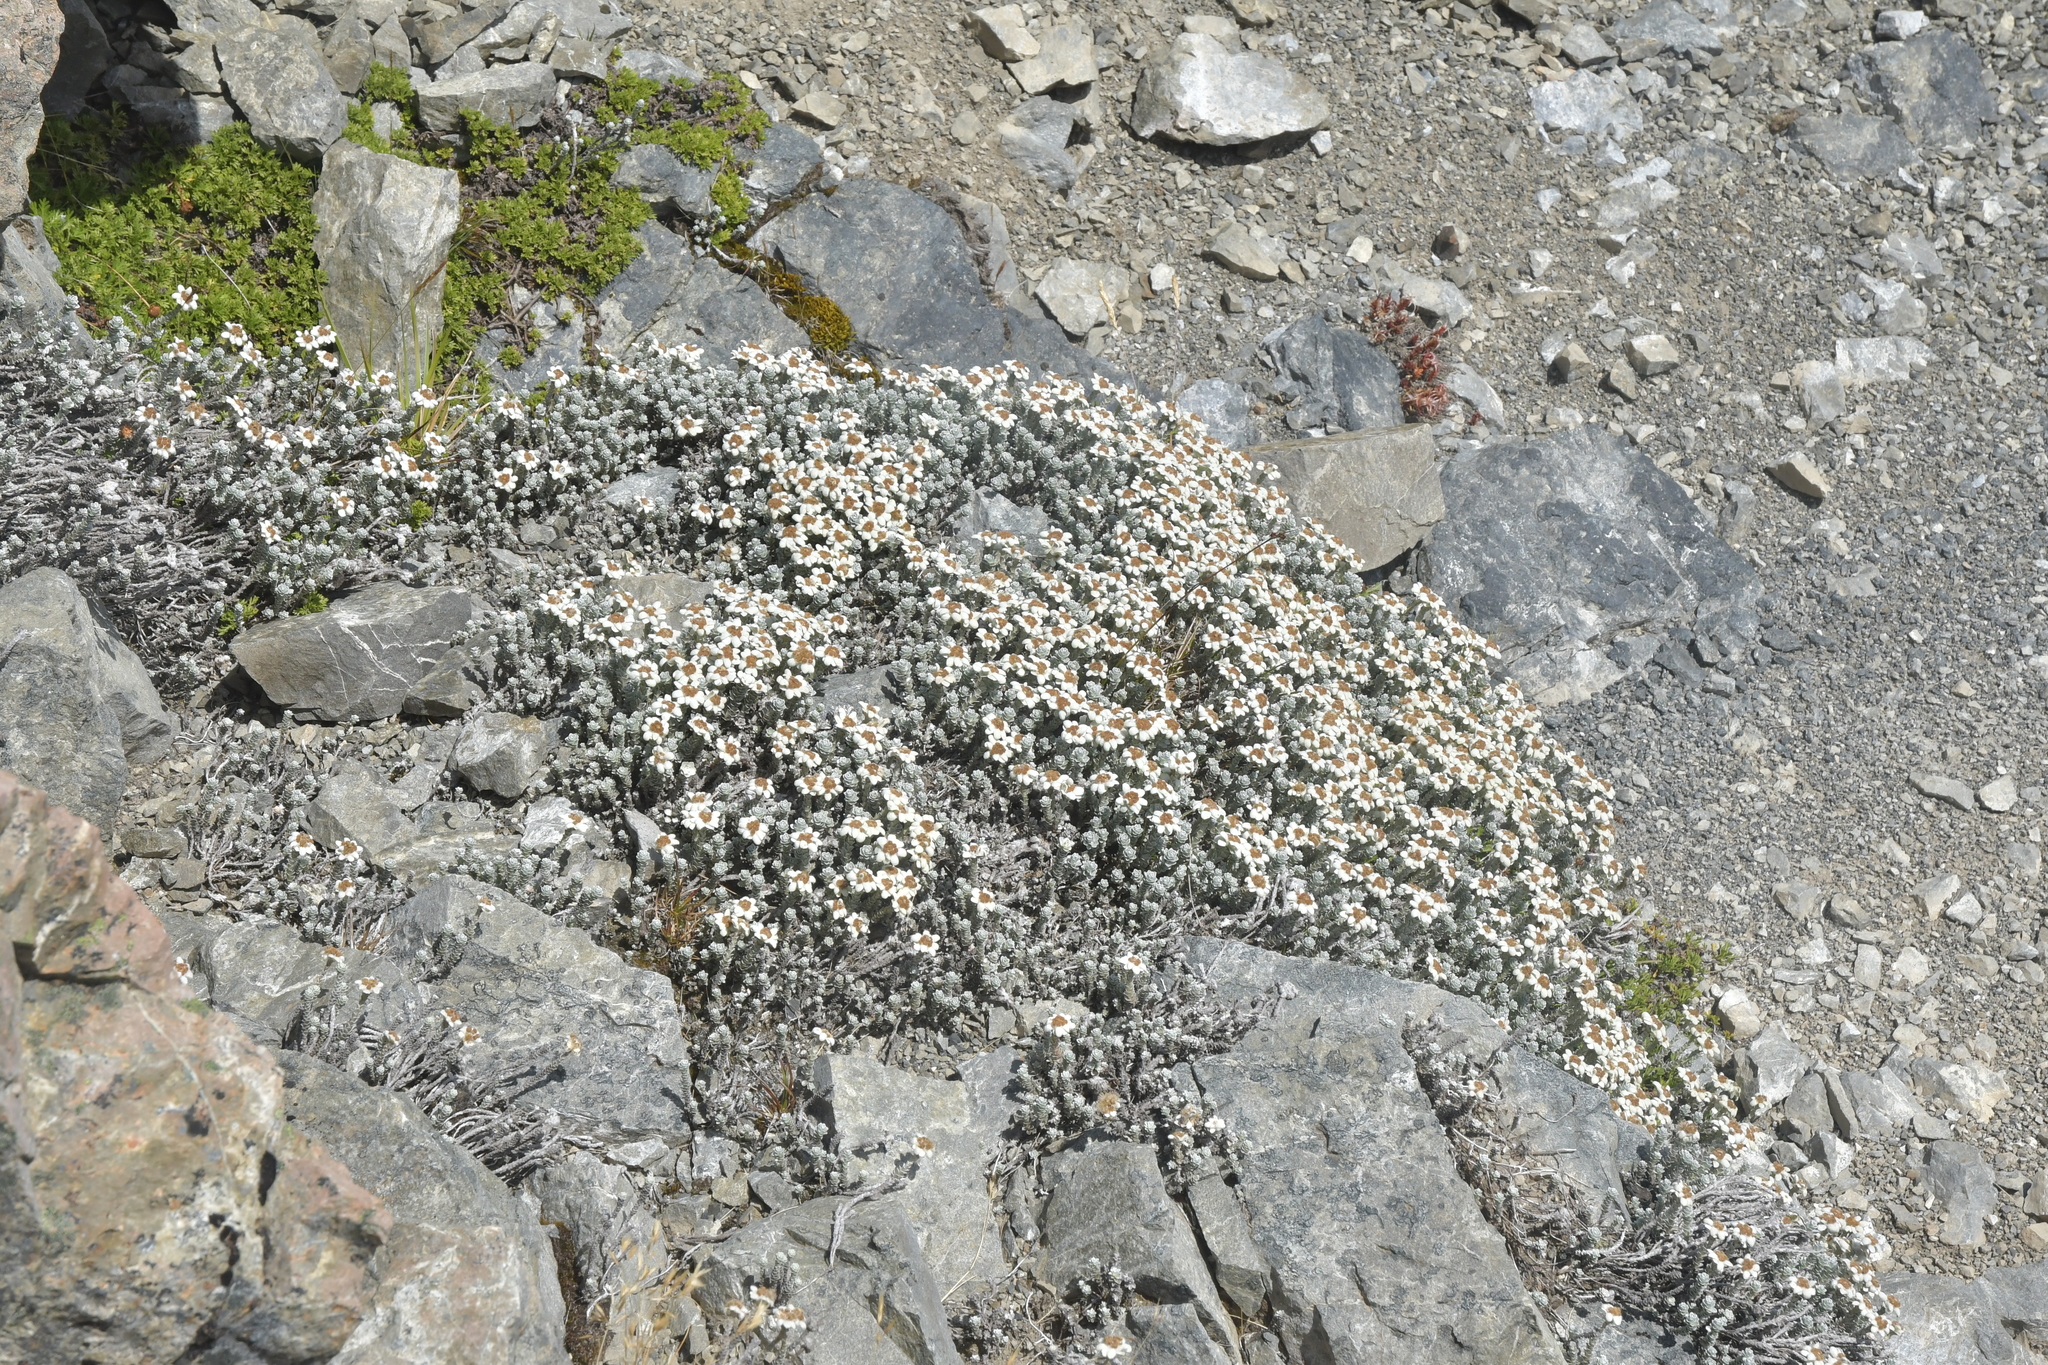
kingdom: Plantae
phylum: Tracheophyta
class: Magnoliopsida
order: Asterales
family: Asteraceae
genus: Leucogenes
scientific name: Leucogenes grandiceps
